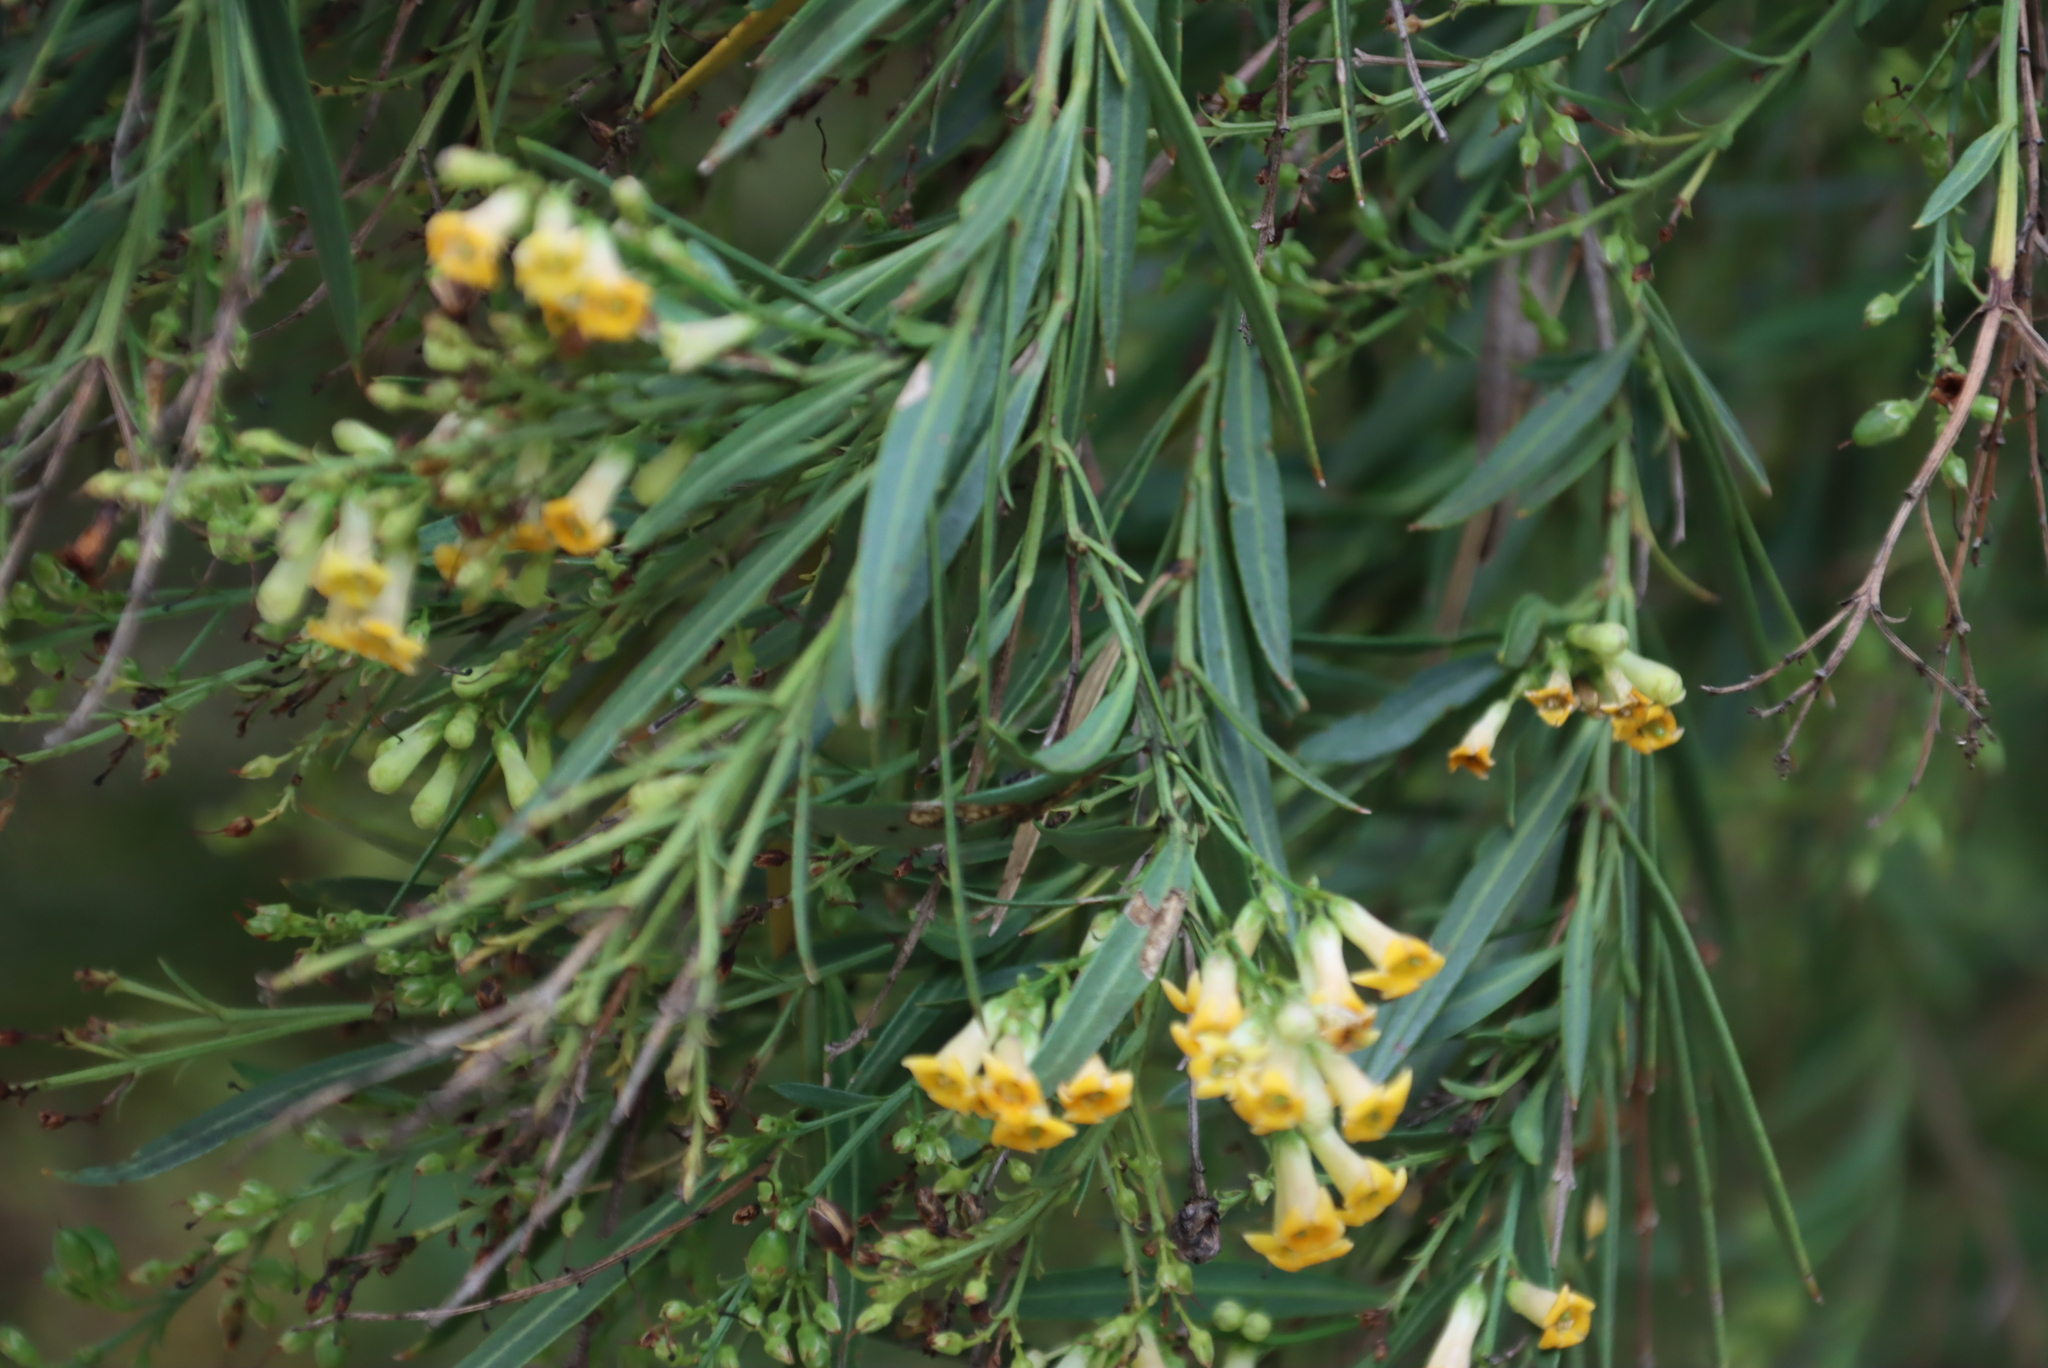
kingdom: Plantae
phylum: Tracheophyta
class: Magnoliopsida
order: Lamiales
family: Scrophulariaceae
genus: Freylinia
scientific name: Freylinia lanceolata
